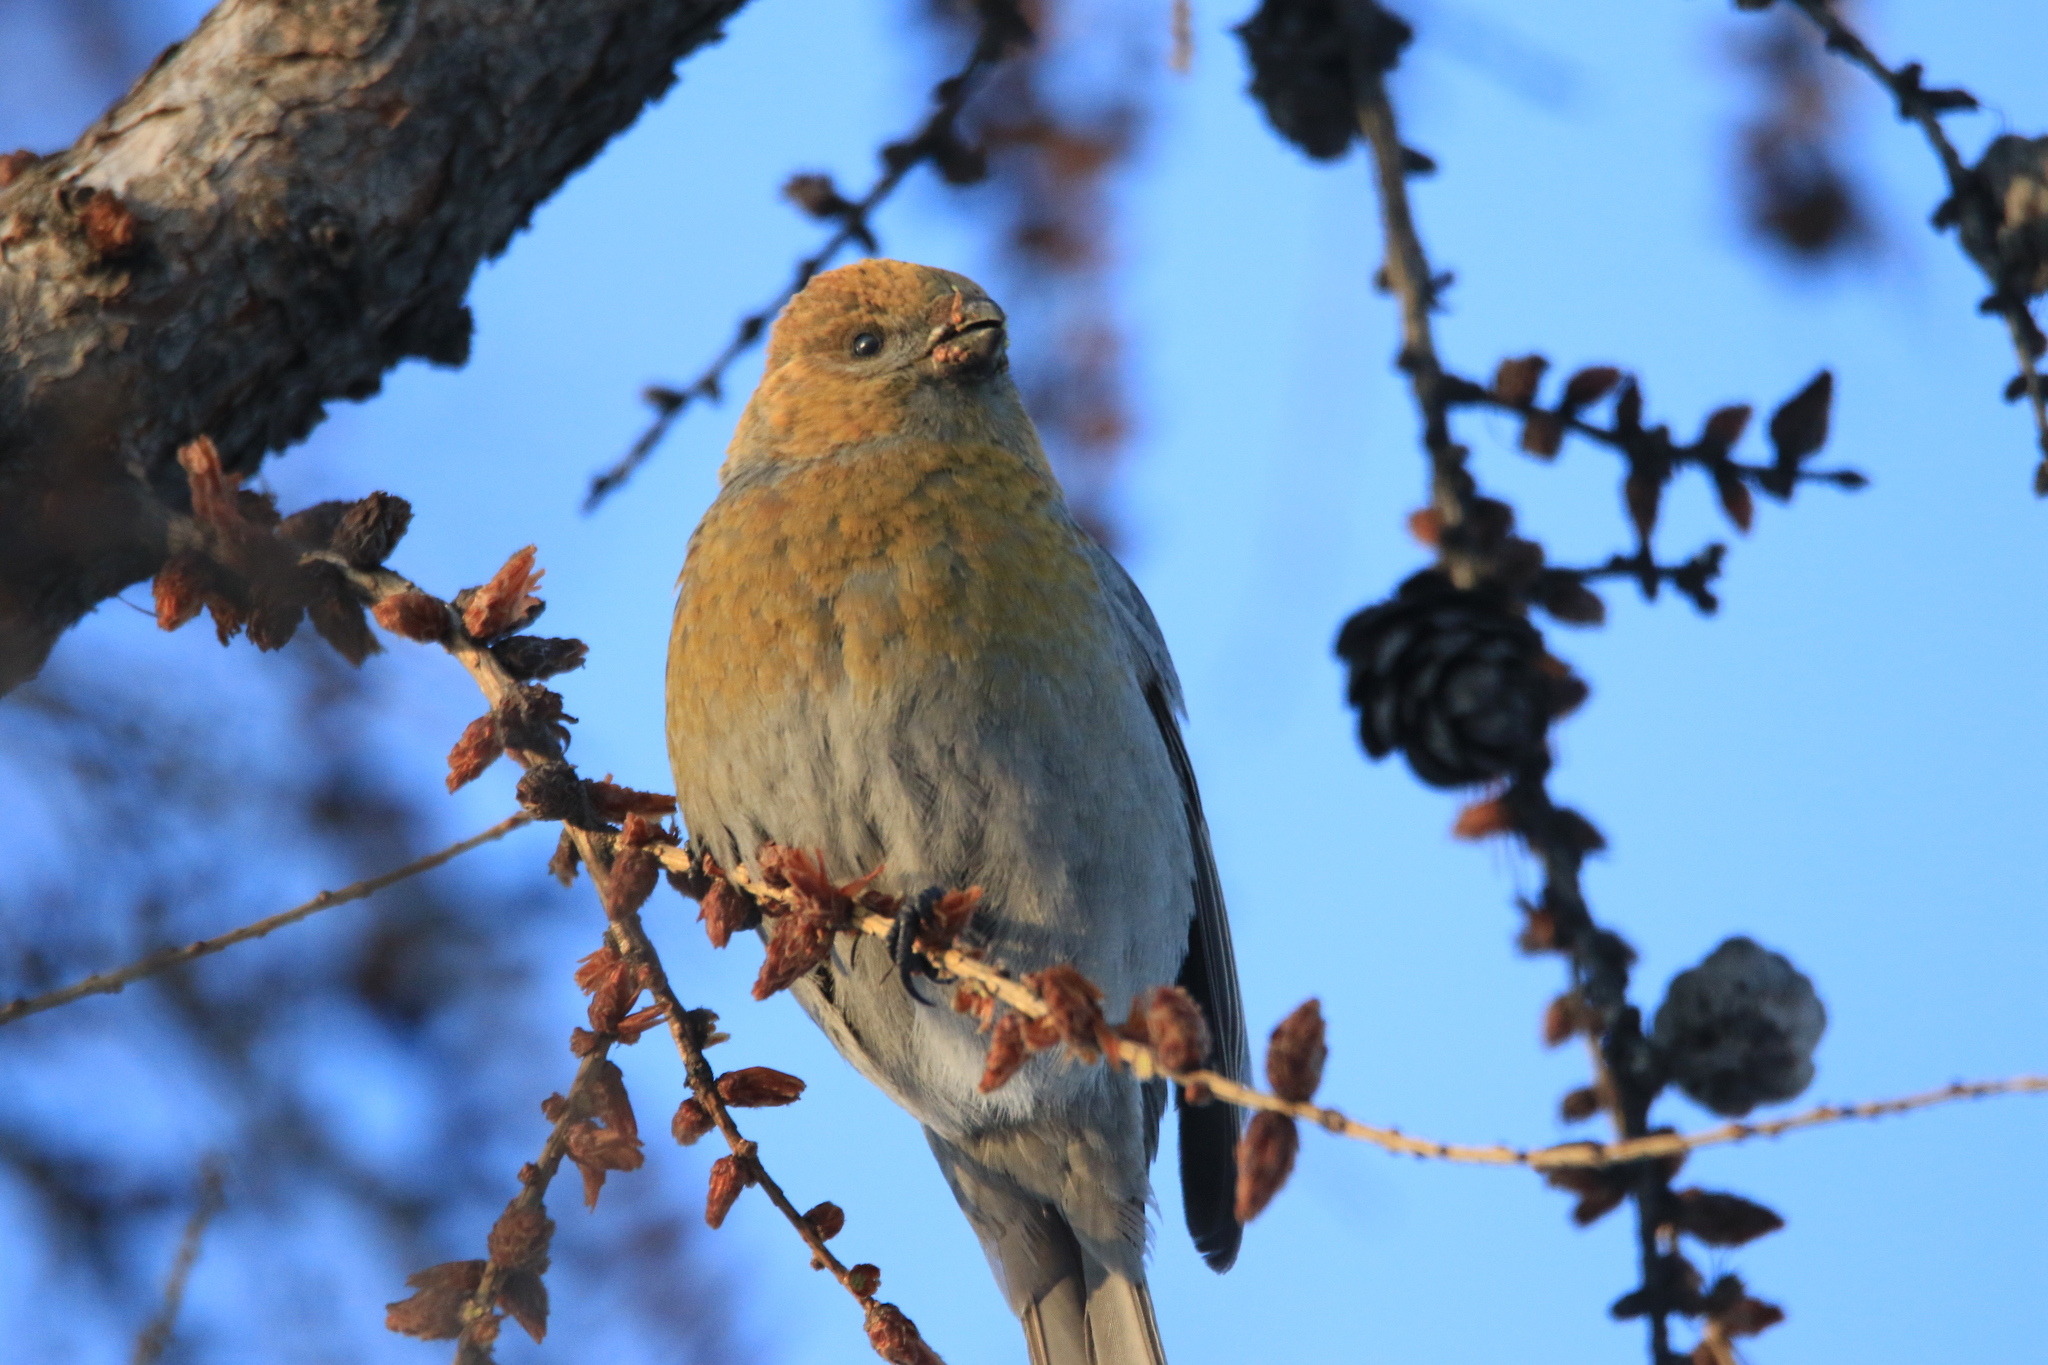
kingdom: Animalia
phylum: Chordata
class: Aves
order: Passeriformes
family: Fringillidae
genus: Pinicola
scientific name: Pinicola enucleator
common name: Pine grosbeak
